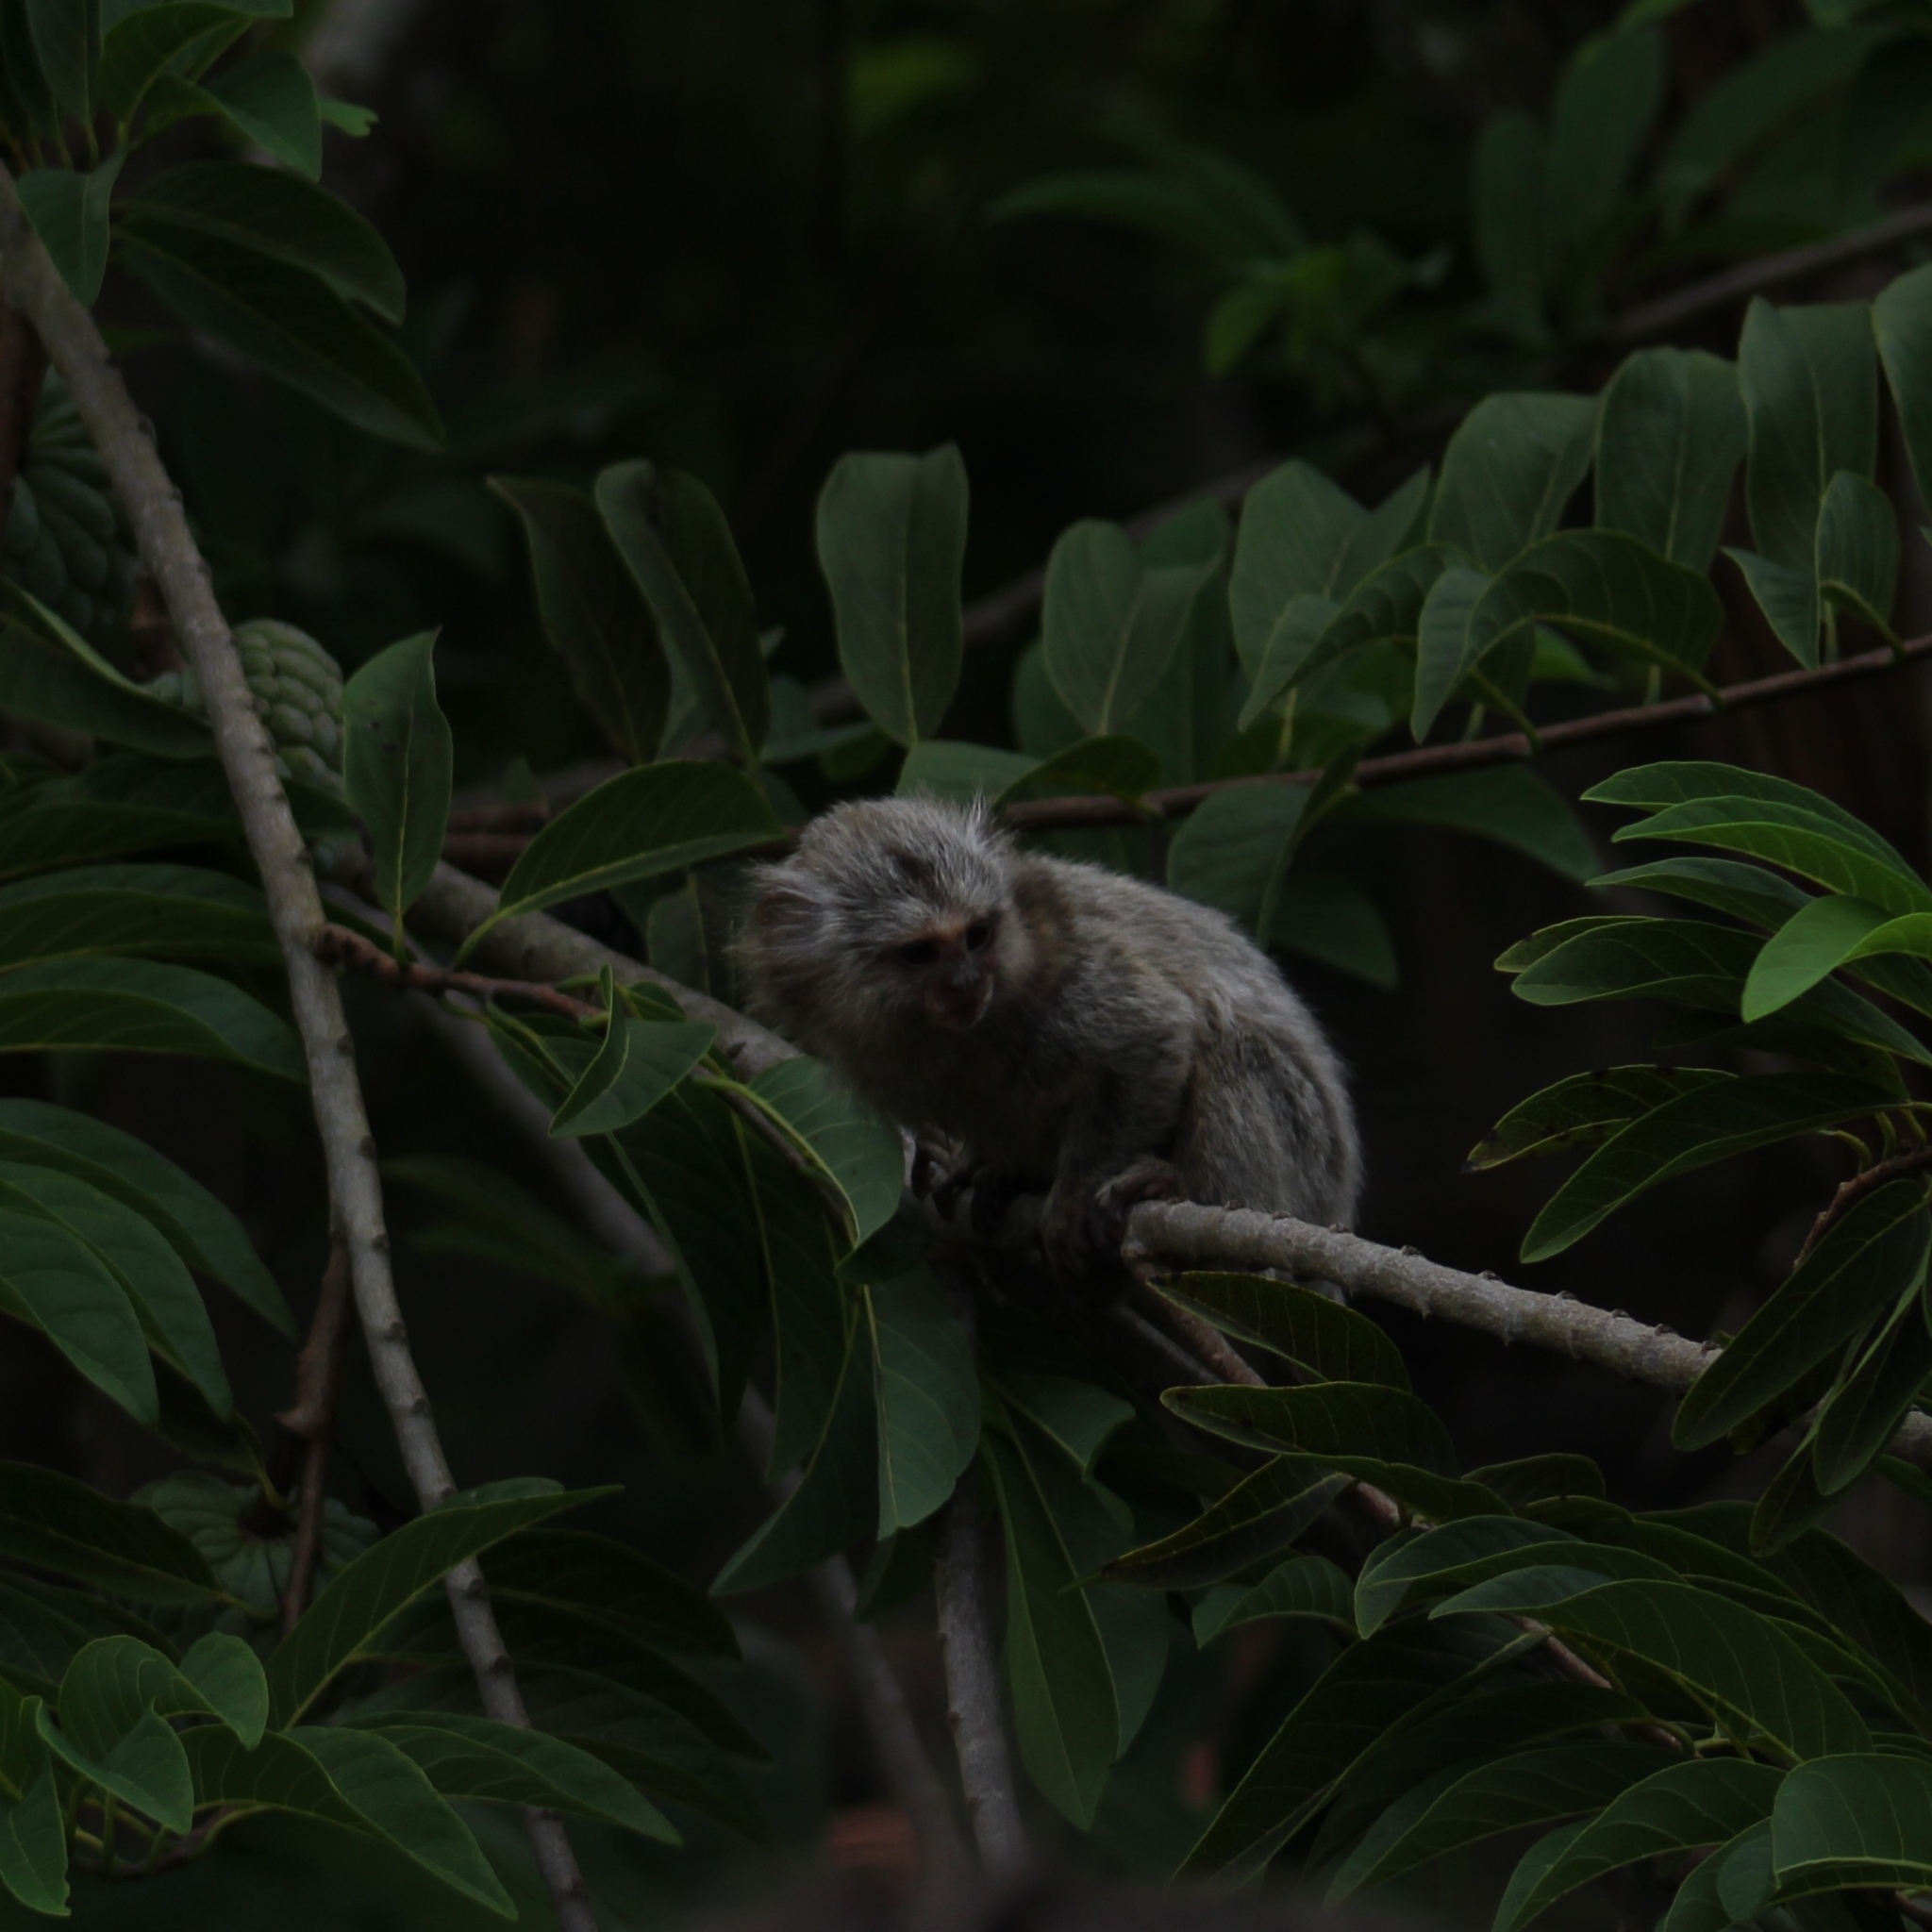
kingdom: Animalia
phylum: Chordata
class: Mammalia
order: Primates
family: Callitrichidae
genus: Callithrix
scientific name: Callithrix jacchus
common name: Common marmoset
